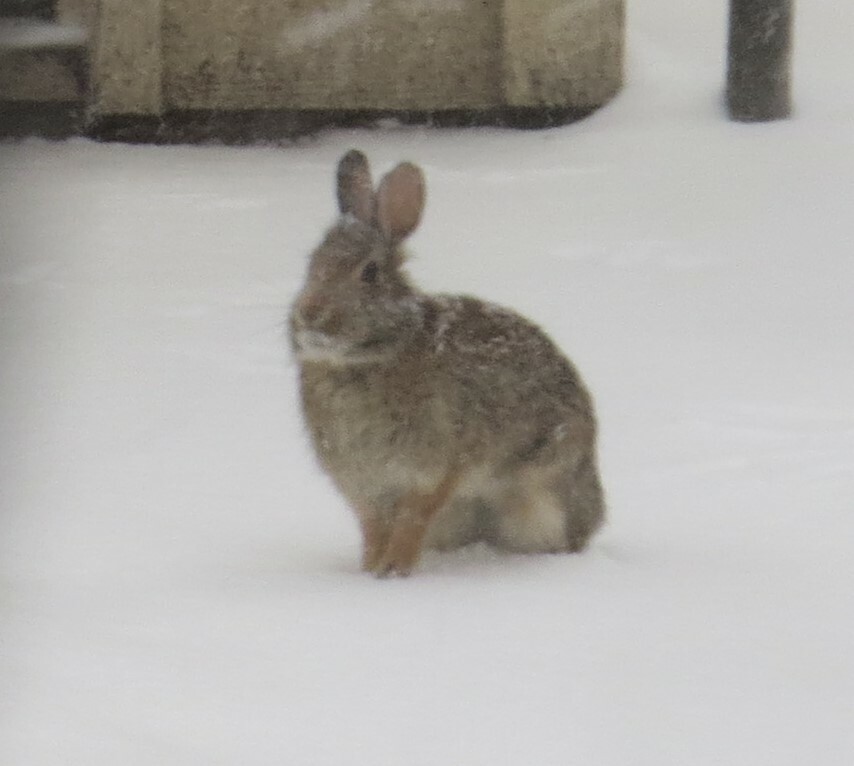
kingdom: Animalia
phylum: Chordata
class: Mammalia
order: Lagomorpha
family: Leporidae
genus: Sylvilagus
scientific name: Sylvilagus floridanus
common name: Eastern cottontail
